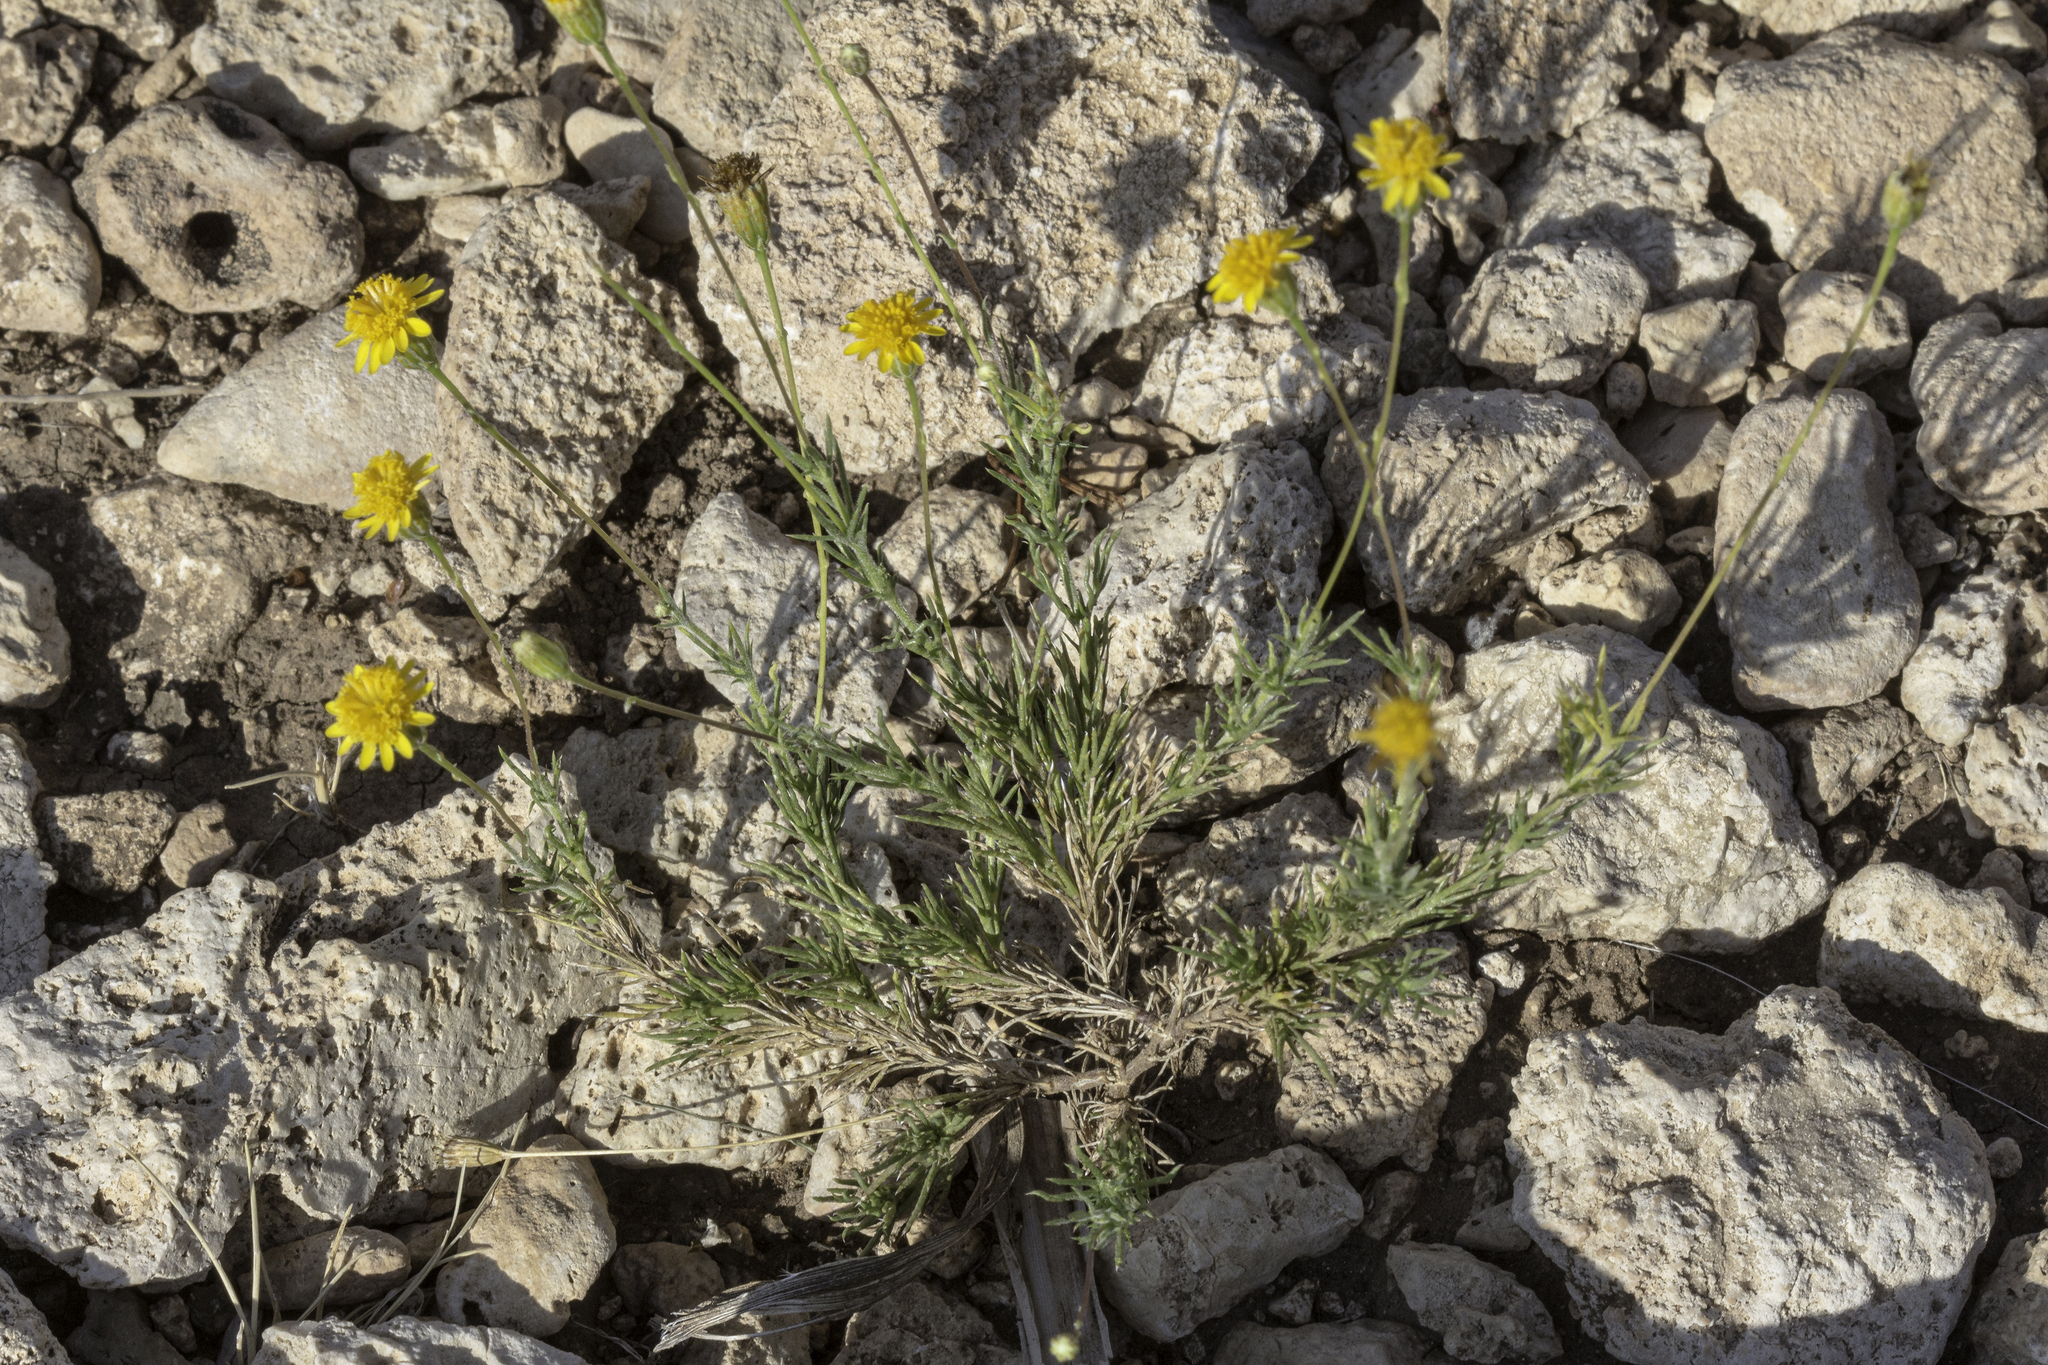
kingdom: Plantae
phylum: Tracheophyta
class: Magnoliopsida
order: Asterales
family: Asteraceae
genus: Thymophylla
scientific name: Thymophylla pentachaeta
